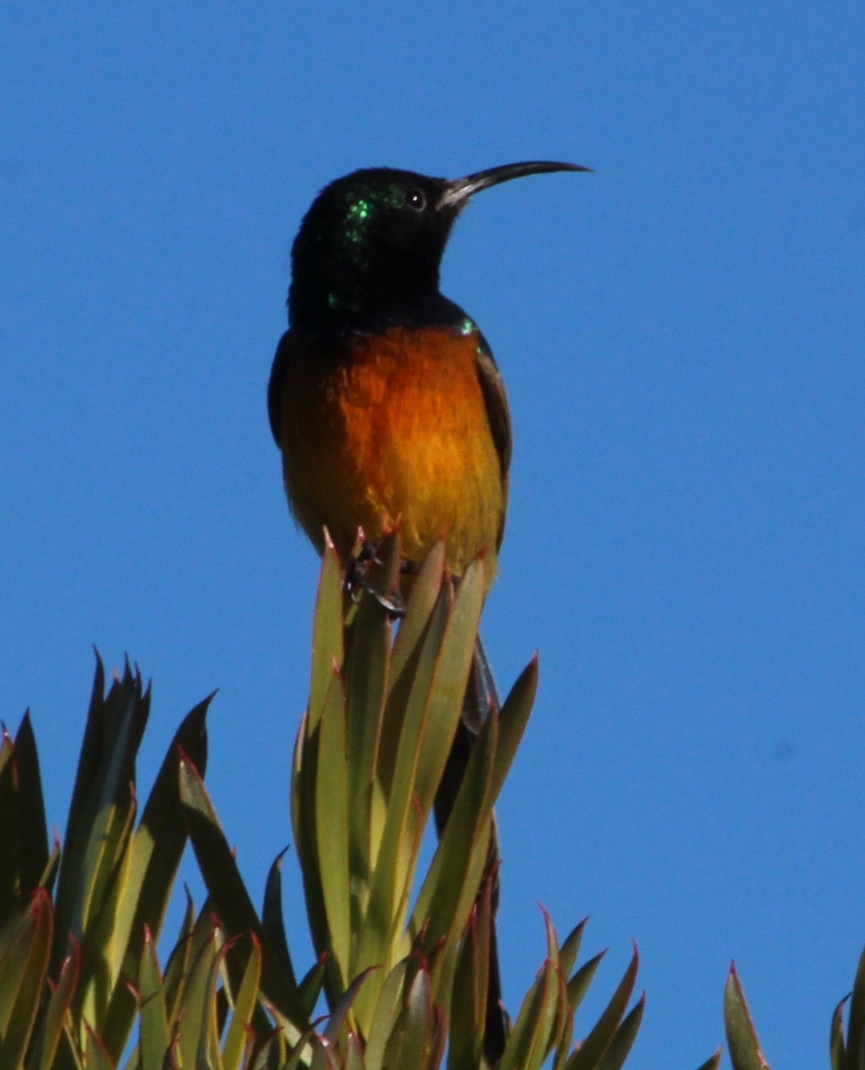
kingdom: Animalia
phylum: Chordata
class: Aves
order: Passeriformes
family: Nectariniidae
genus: Anthobaphes
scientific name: Anthobaphes violacea
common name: Orange-breasted sunbird
